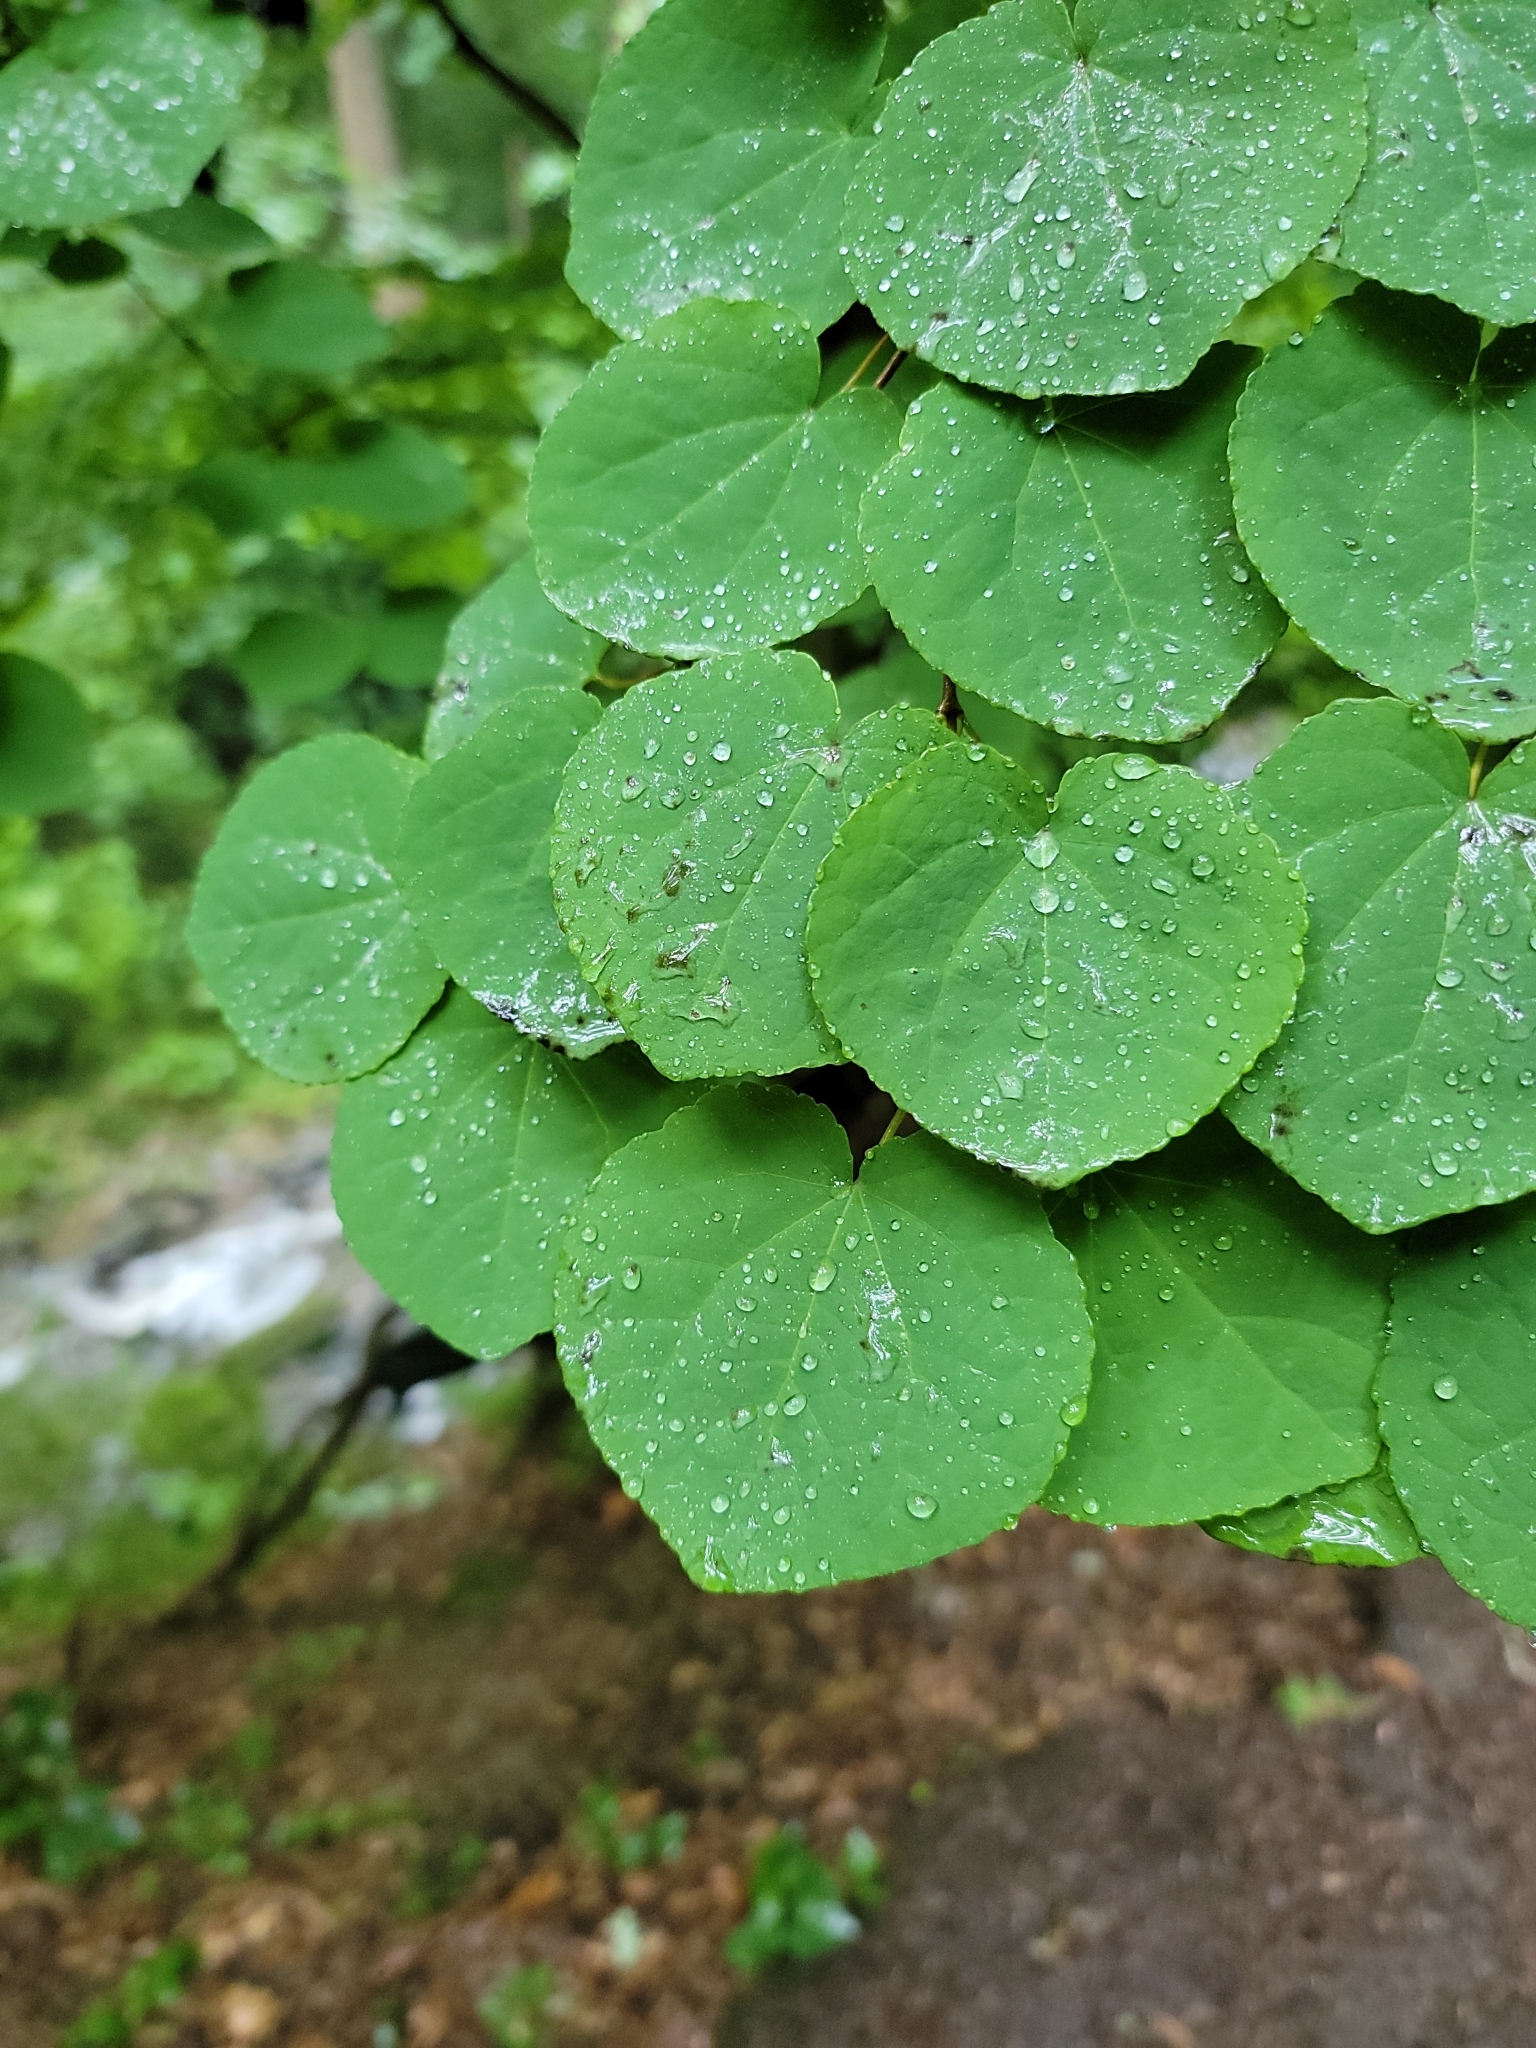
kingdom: Plantae
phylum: Tracheophyta
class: Magnoliopsida
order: Saxifragales
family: Cercidiphyllaceae
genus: Cercidiphyllum
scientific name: Cercidiphyllum japonicum
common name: Katsura tree
